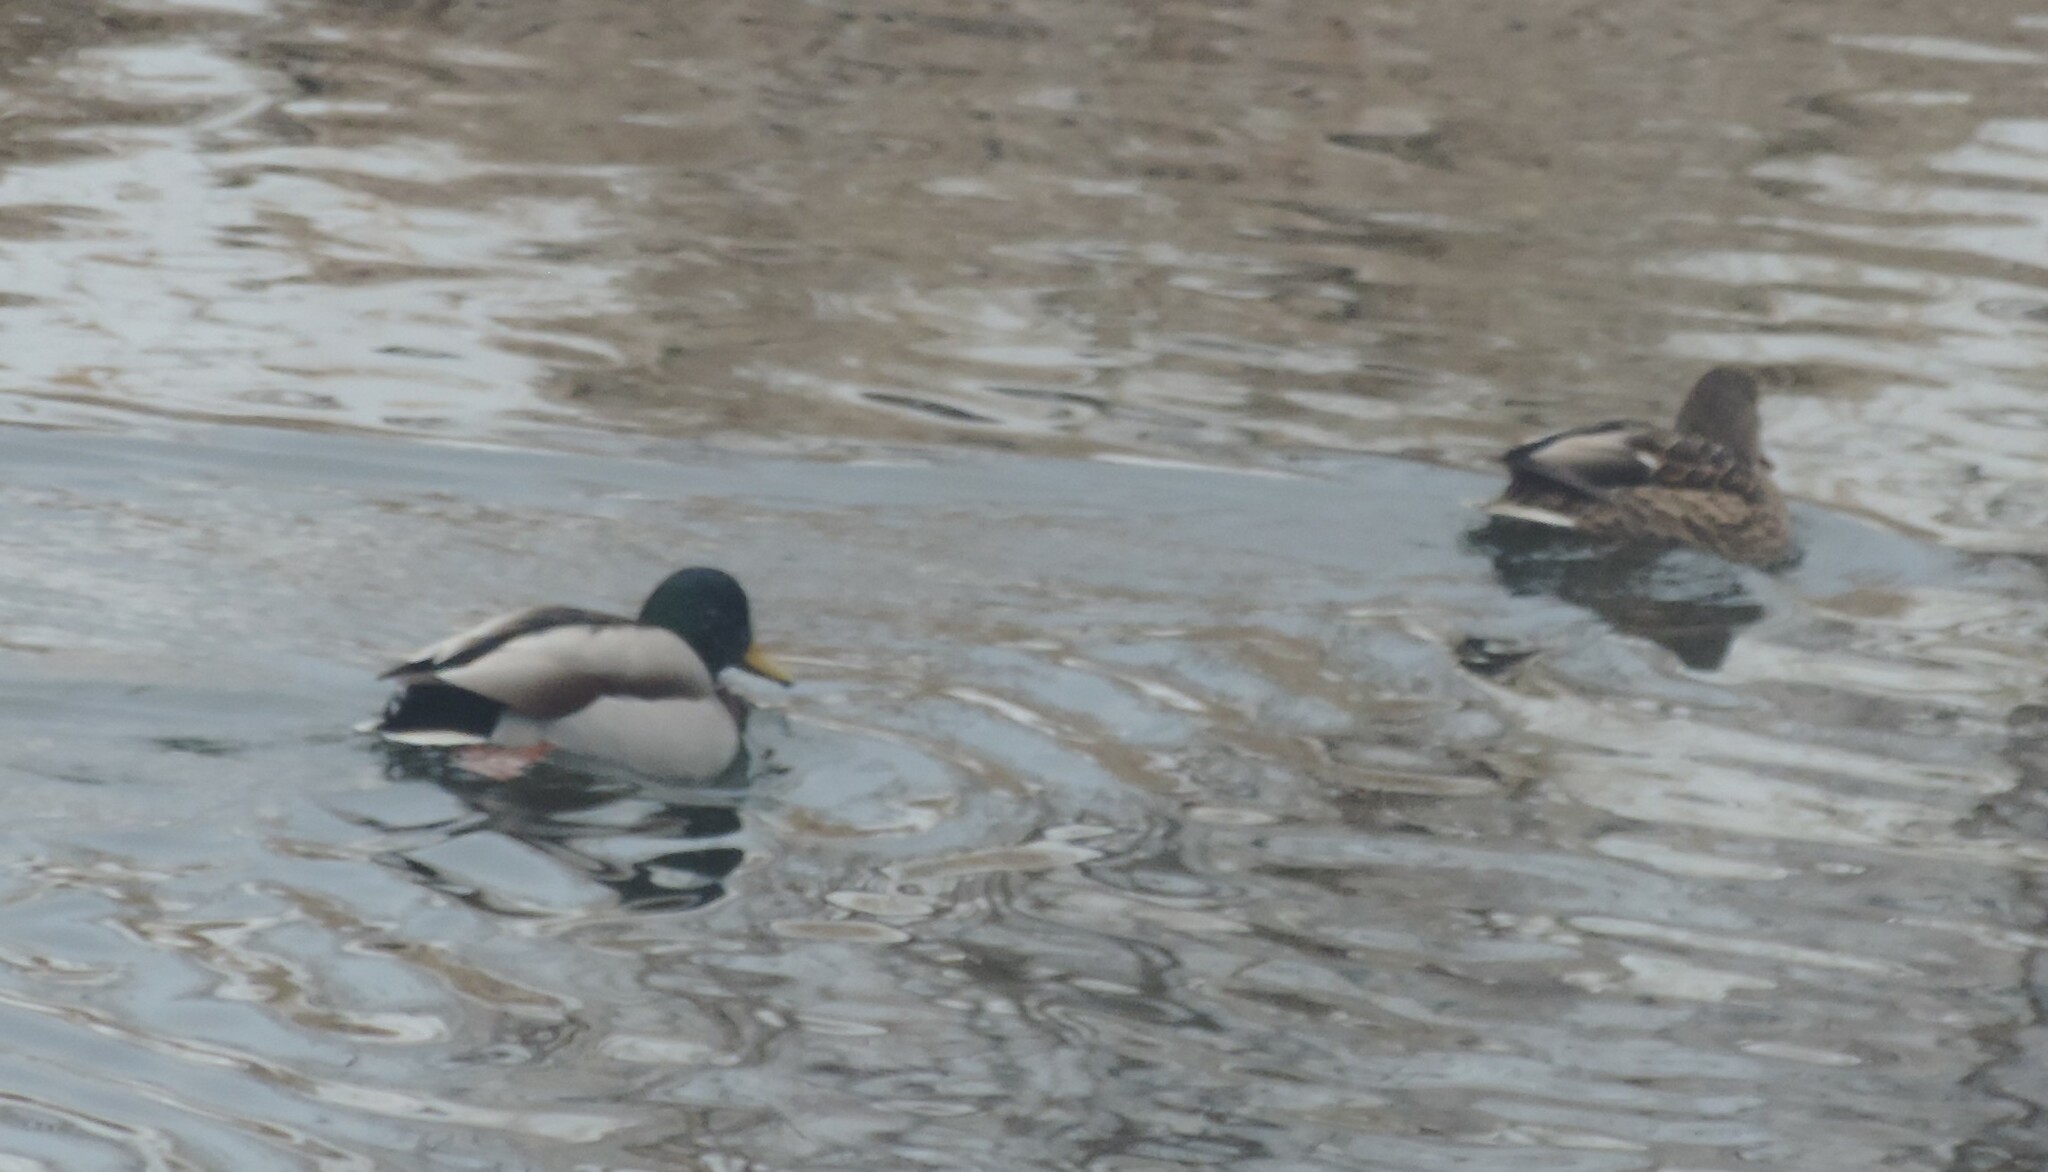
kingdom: Animalia
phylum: Chordata
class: Aves
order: Anseriformes
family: Anatidae
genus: Anas
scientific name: Anas platyrhynchos
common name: Mallard
